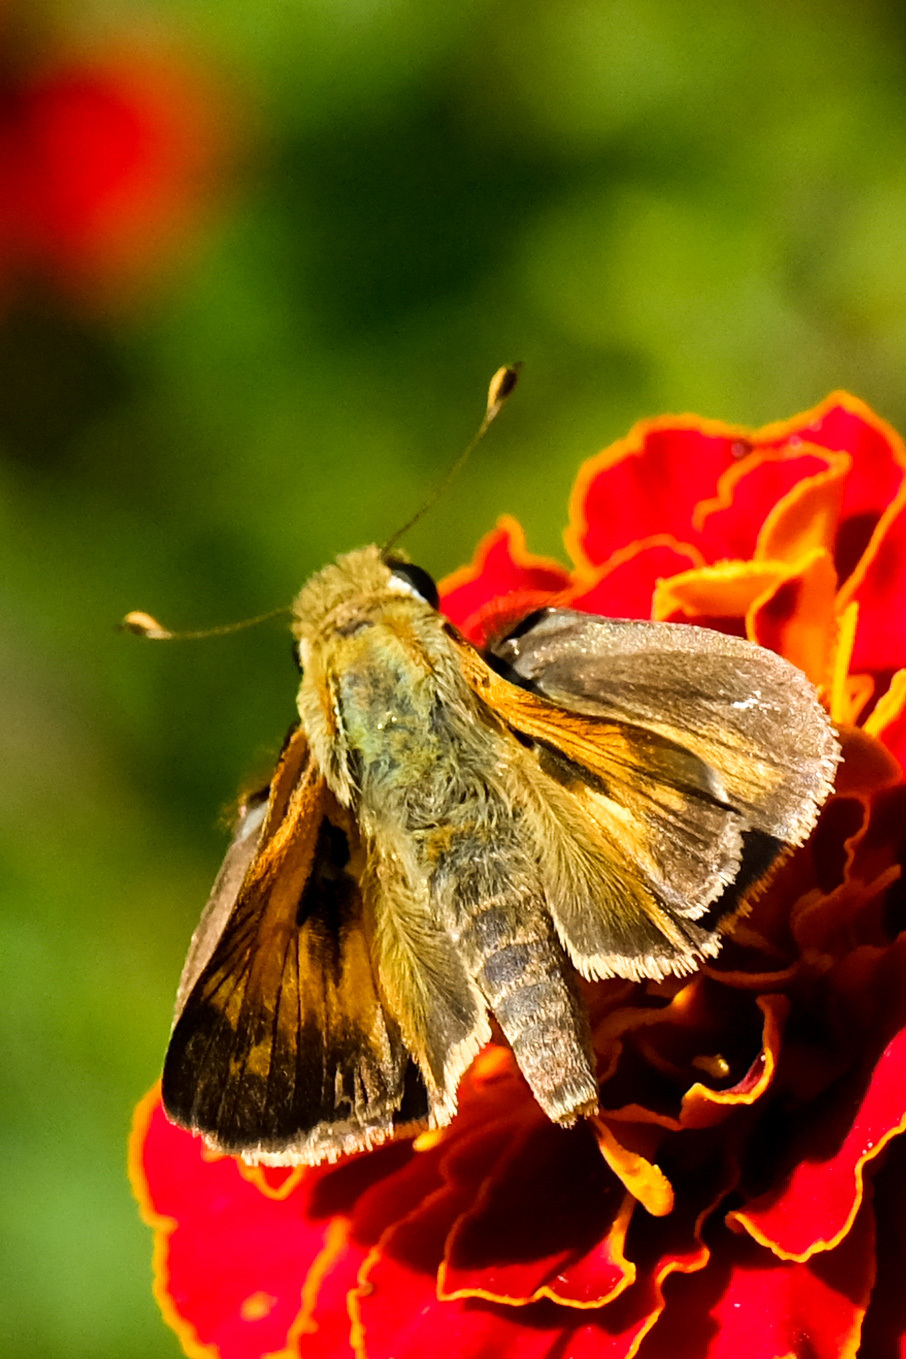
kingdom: Animalia
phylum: Arthropoda
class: Insecta
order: Lepidoptera
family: Hesperiidae
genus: Atalopedes
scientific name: Atalopedes
